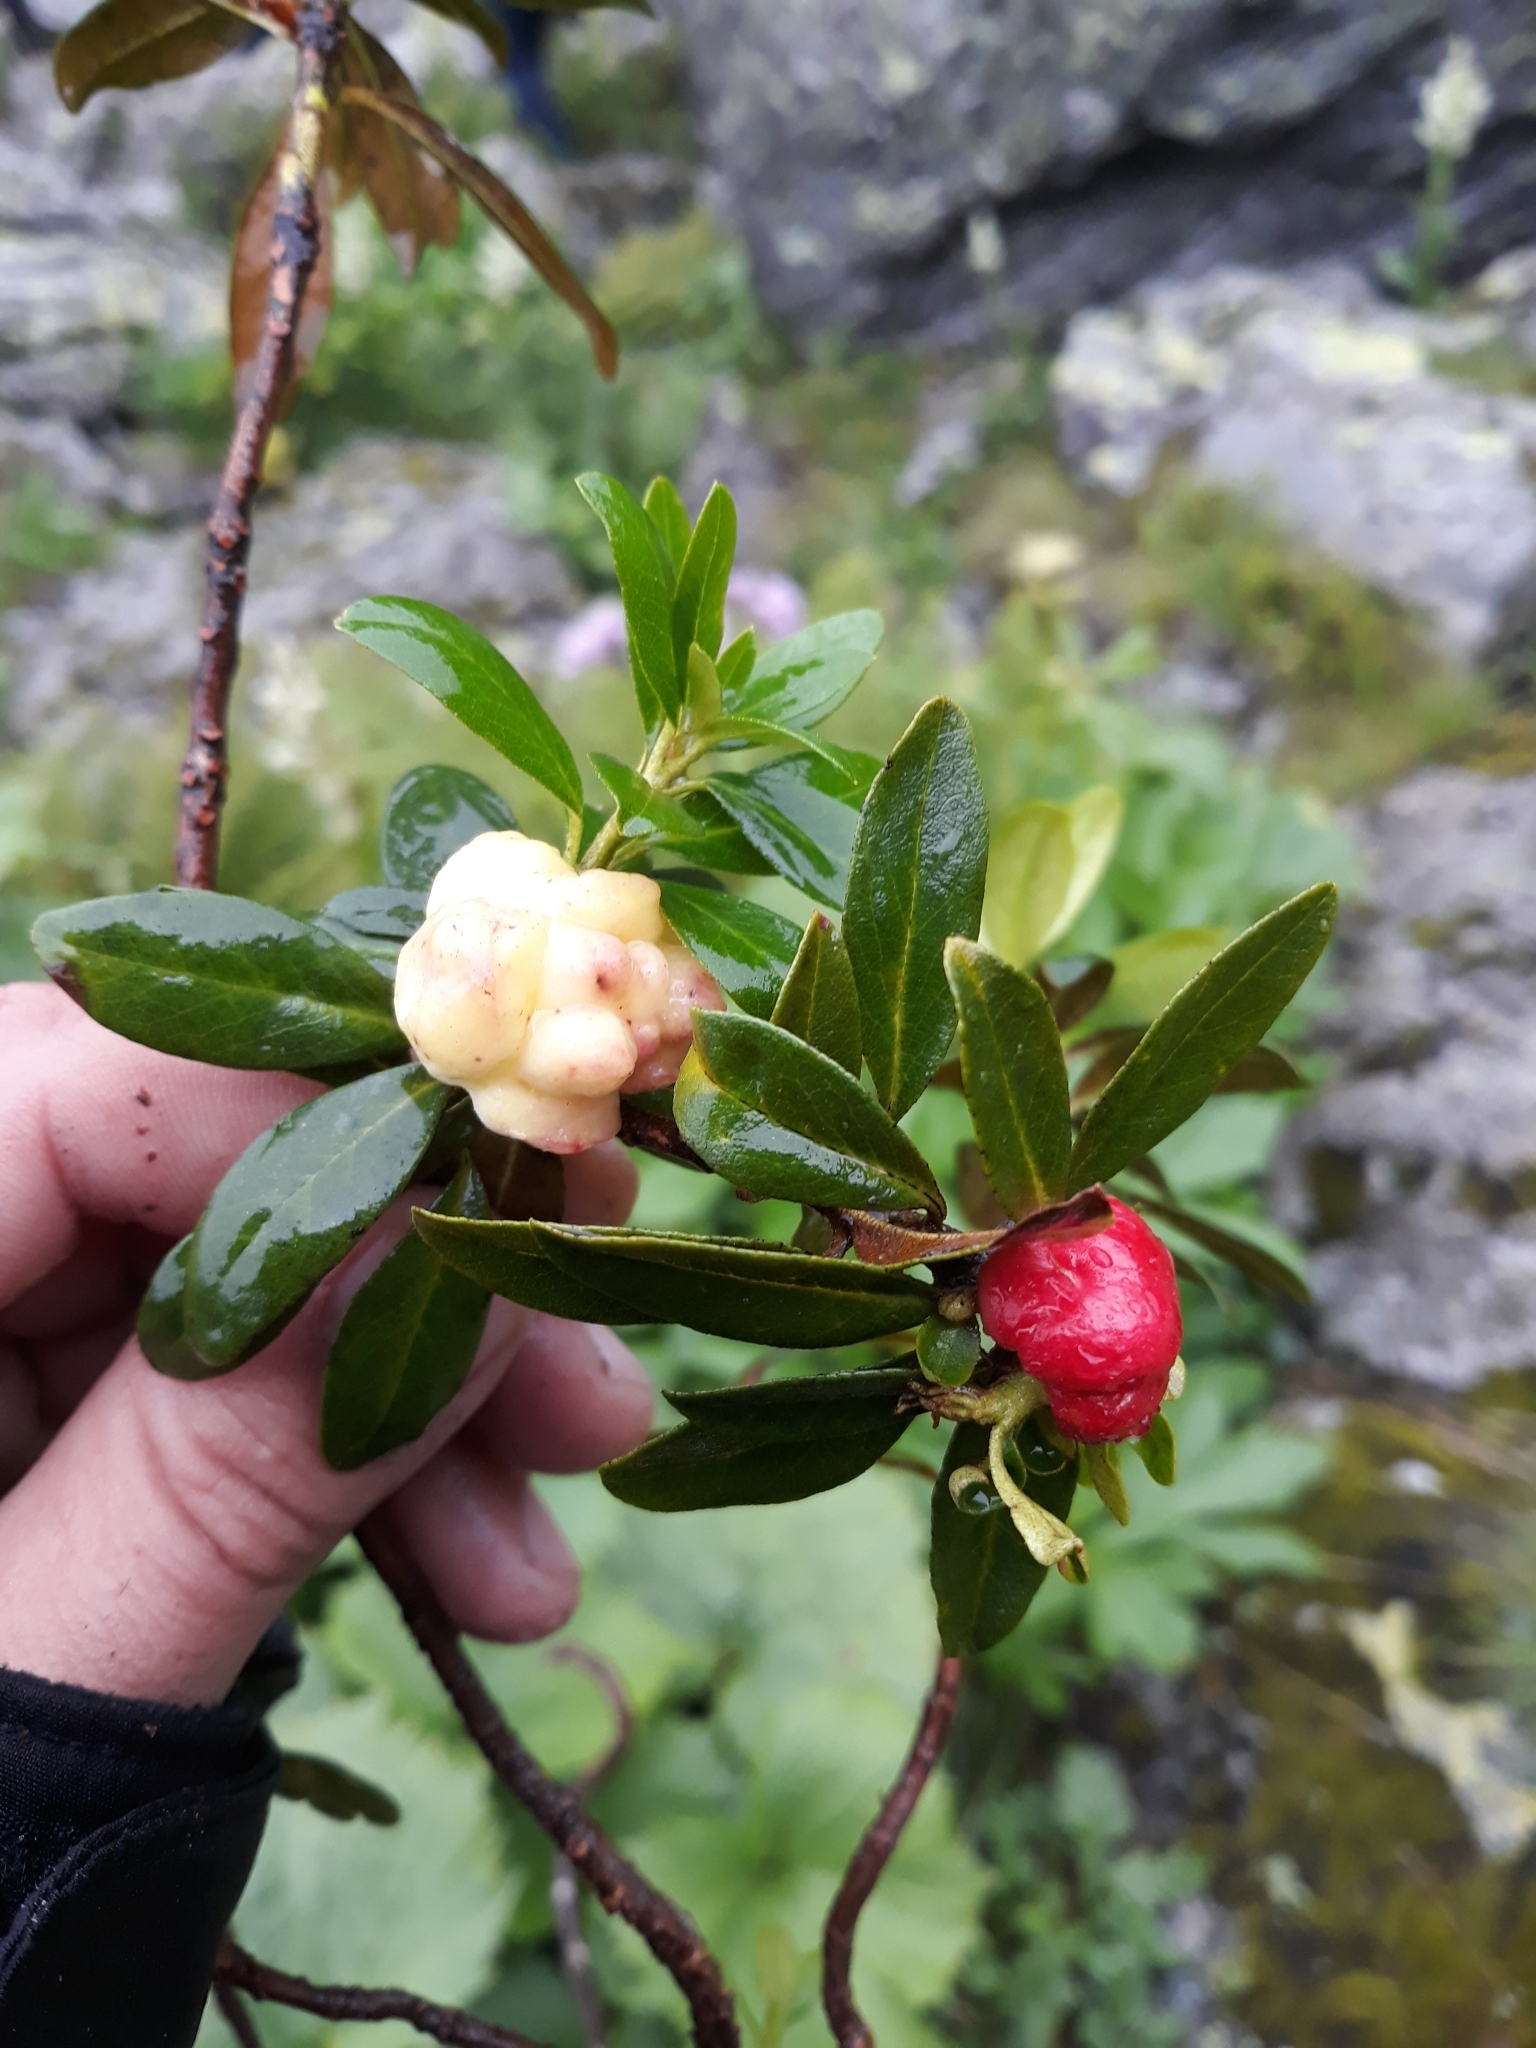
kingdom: Plantae
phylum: Tracheophyta
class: Magnoliopsida
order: Ericales
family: Ericaceae
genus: Rhododendron
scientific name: Rhododendron ferrugineum
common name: Alpenrose
